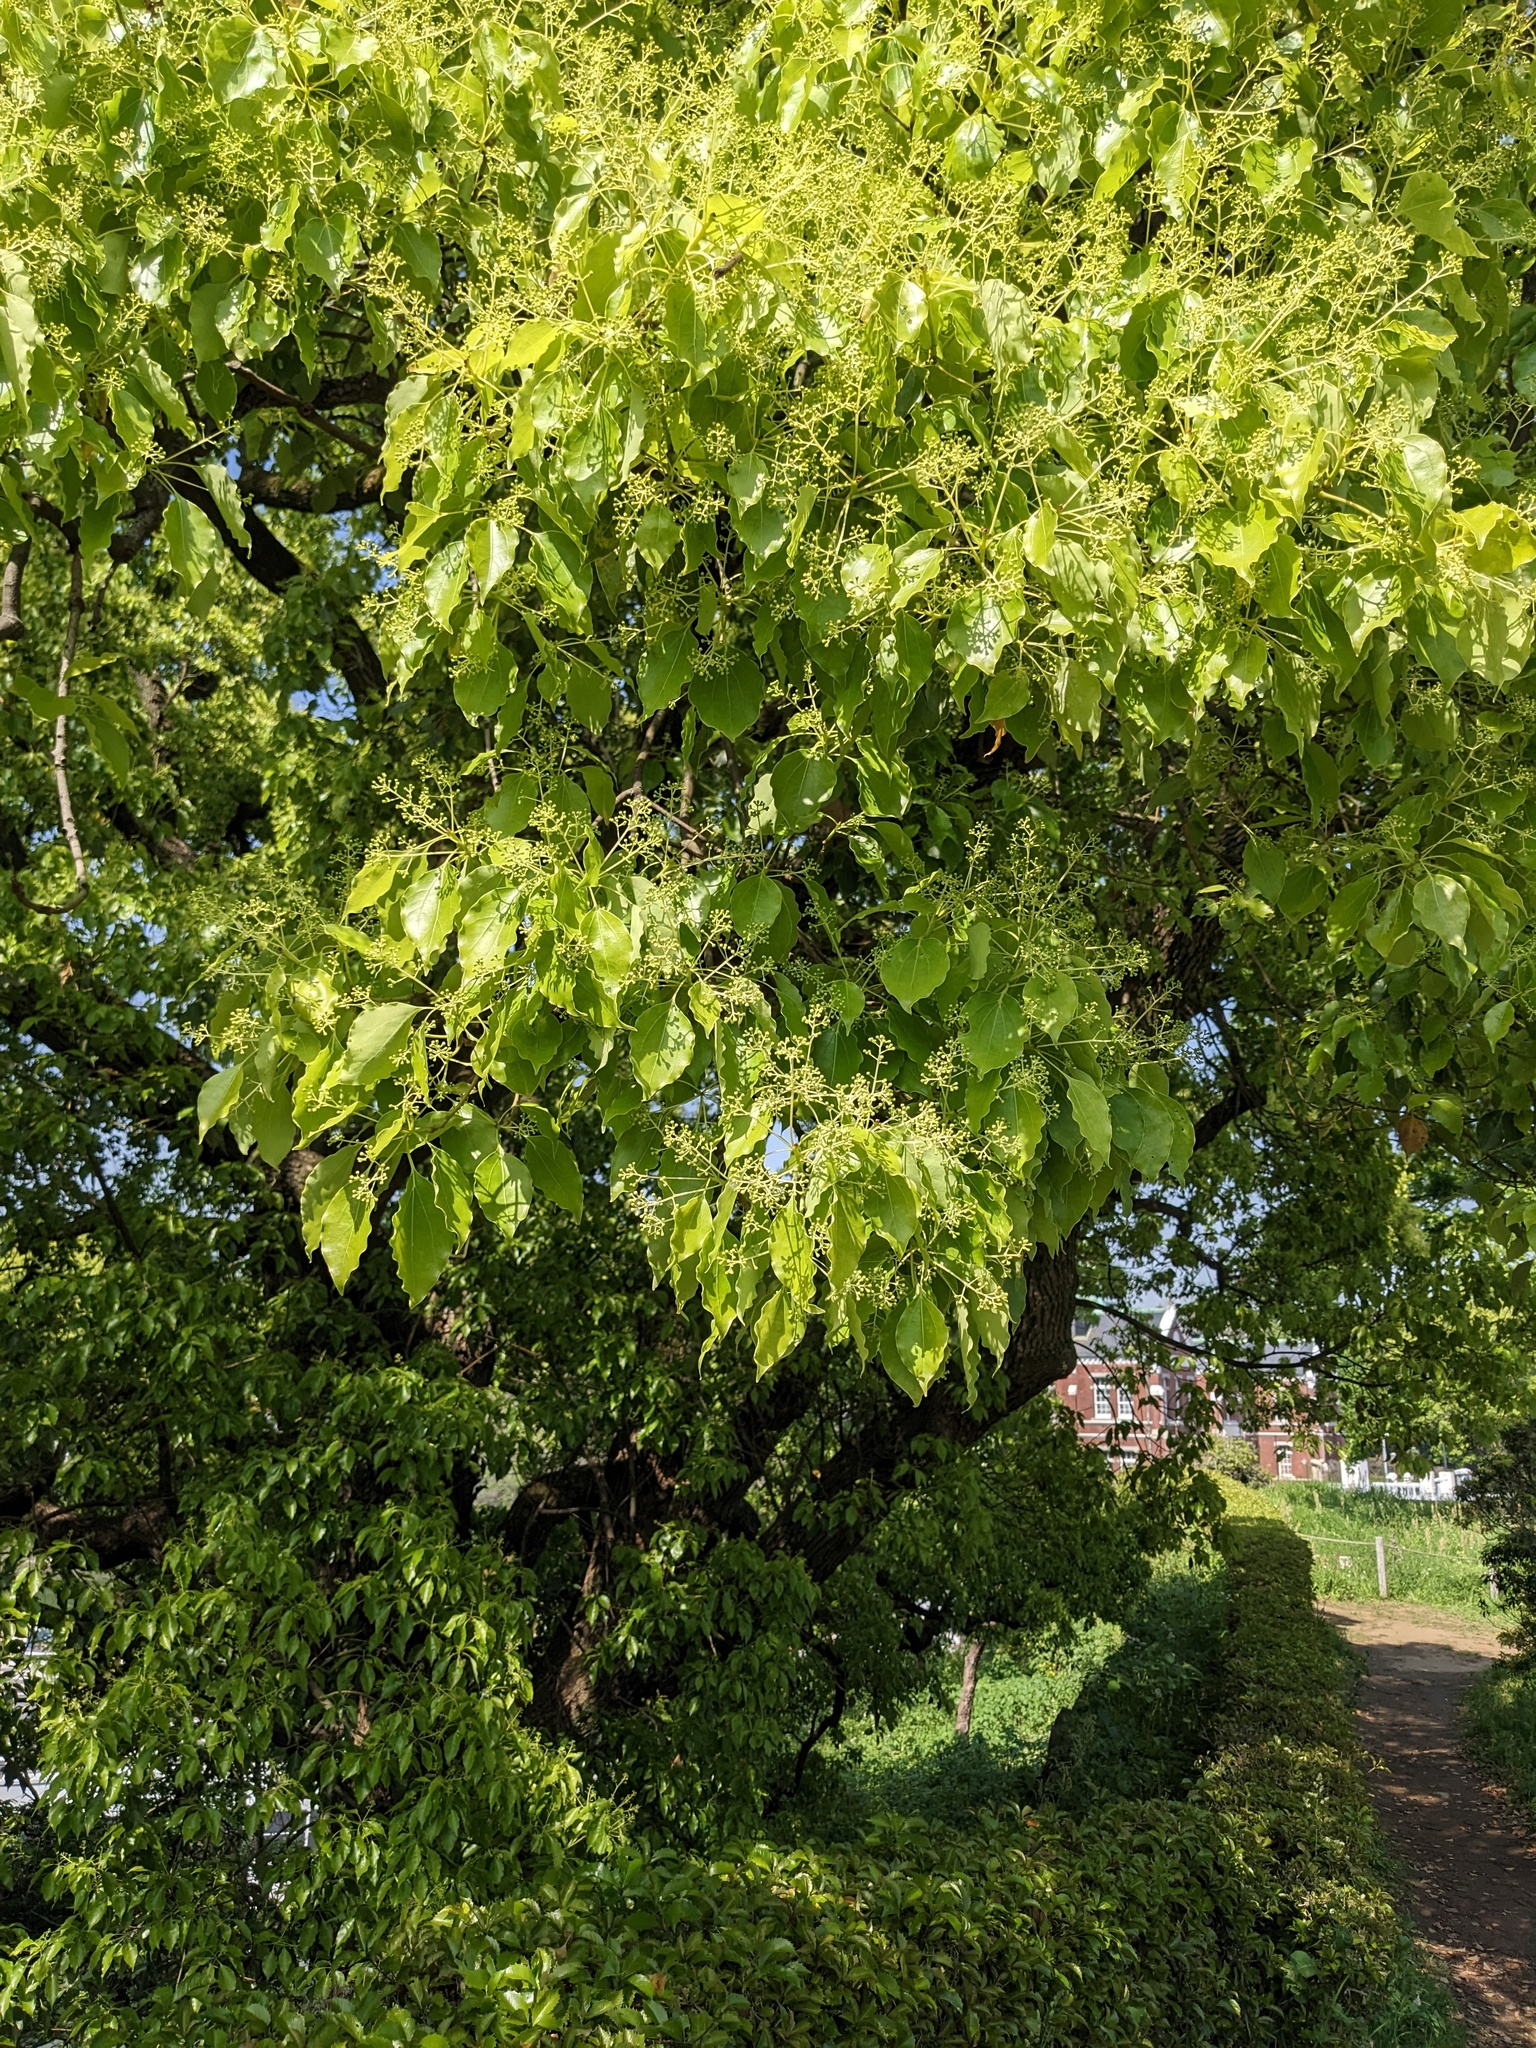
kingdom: Plantae
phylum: Tracheophyta
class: Magnoliopsida
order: Laurales
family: Lauraceae
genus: Cinnamomum
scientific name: Cinnamomum camphora
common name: Camphortree
